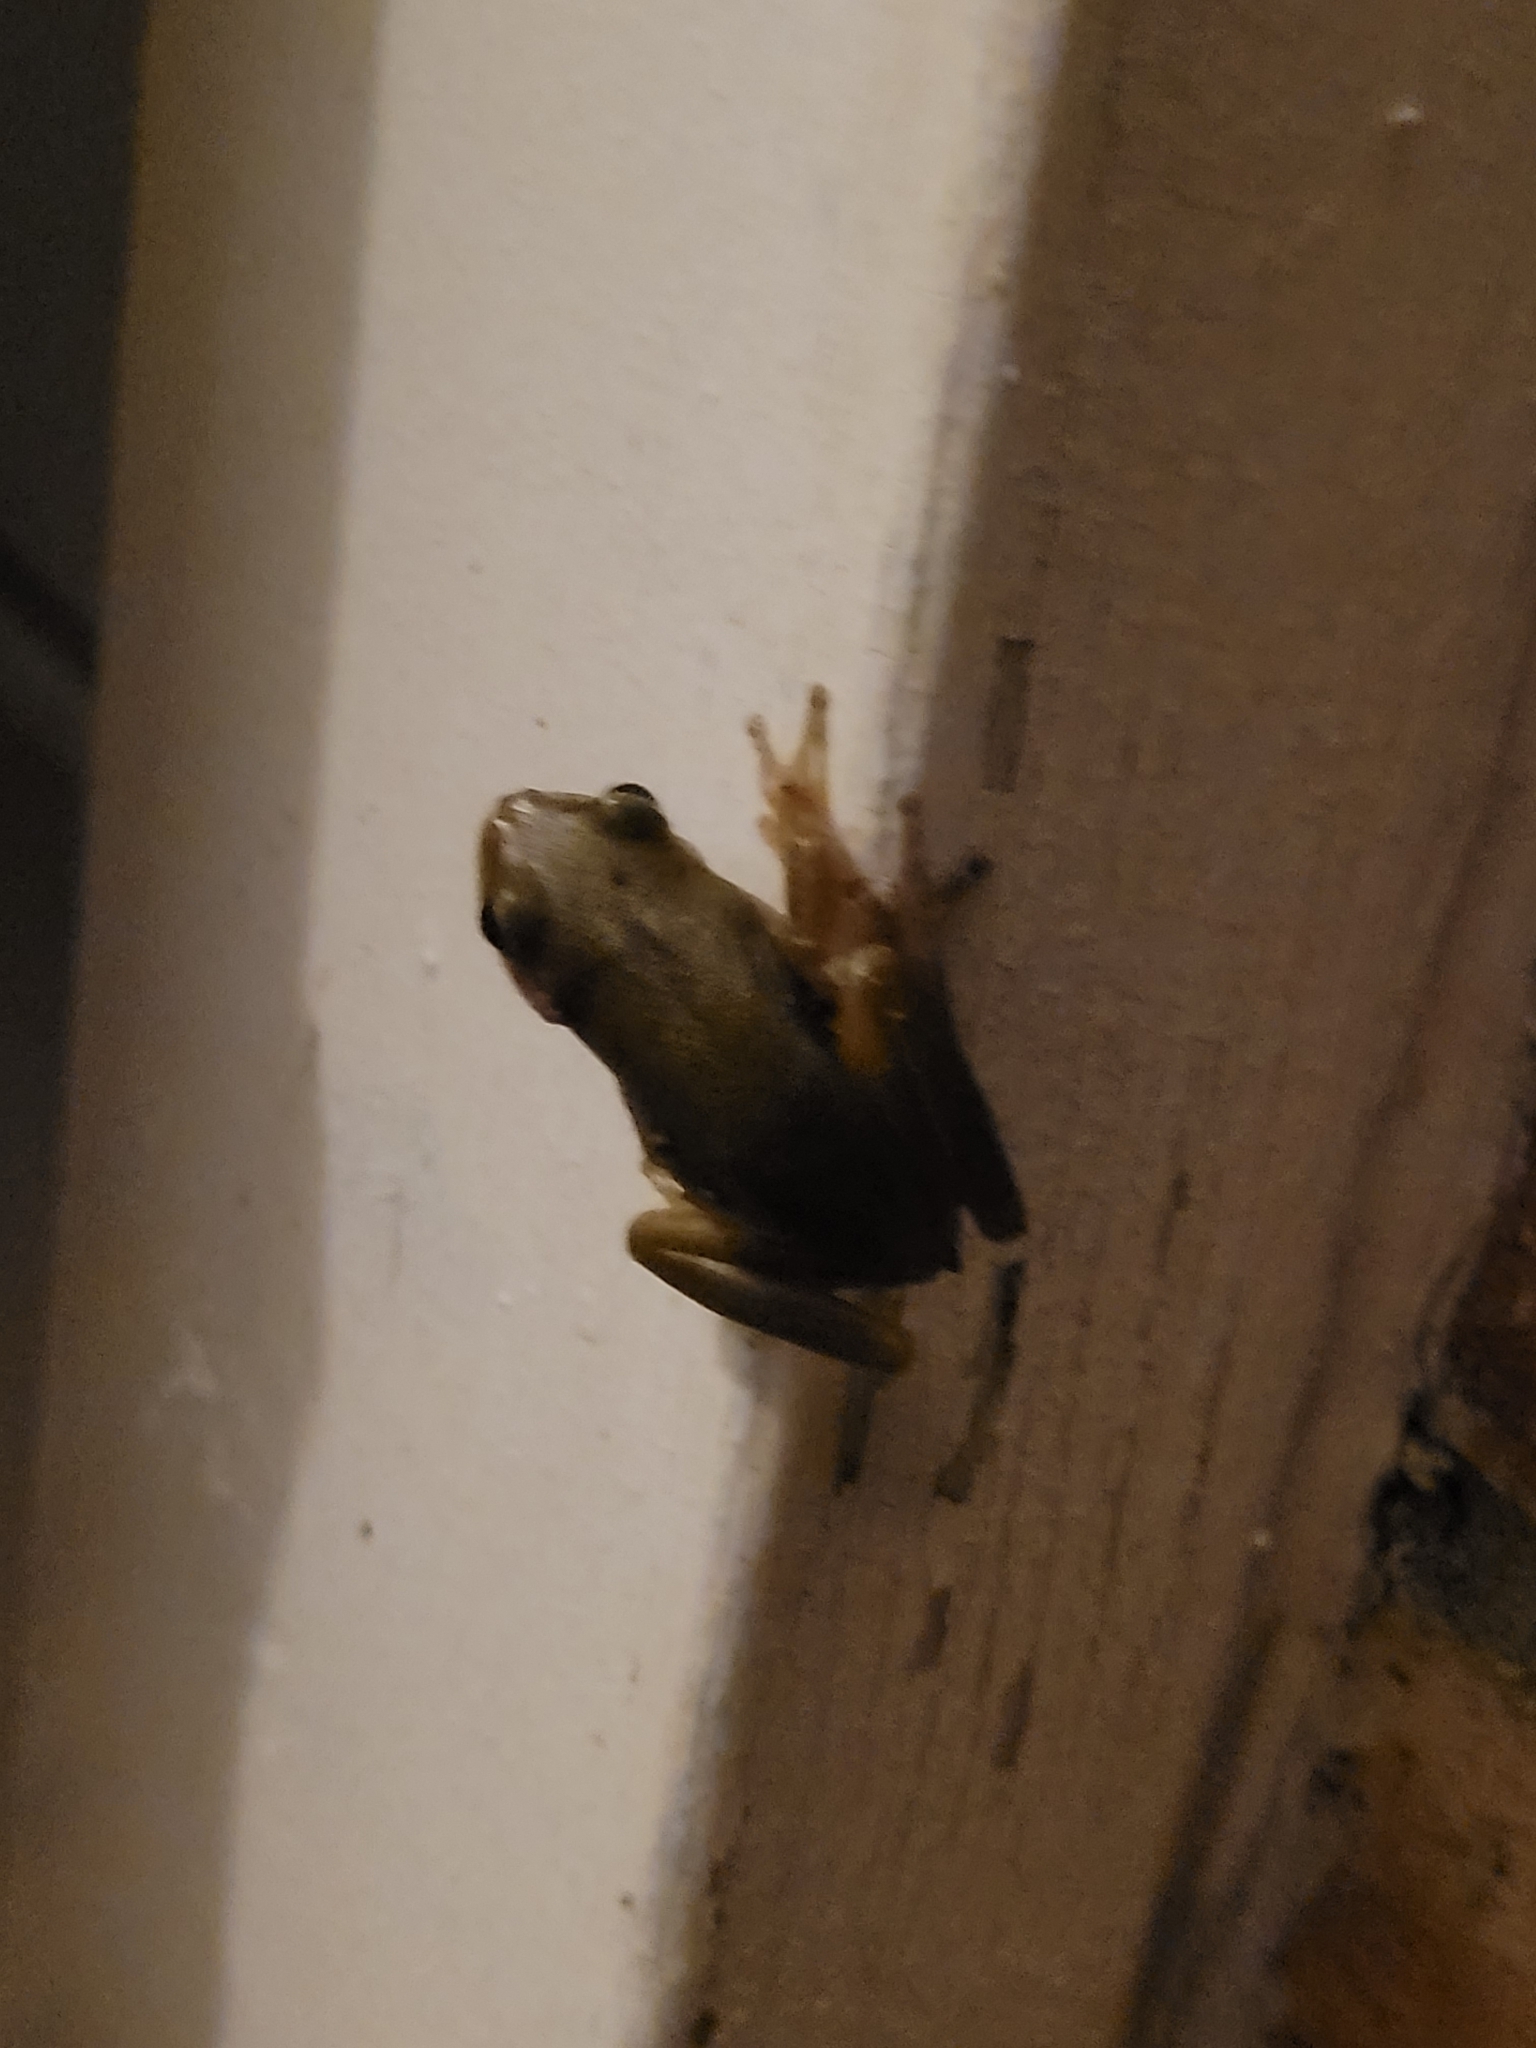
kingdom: Animalia
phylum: Chordata
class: Amphibia
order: Anura
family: Hylidae
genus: Dryophytes
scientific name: Dryophytes squirellus
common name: Squirrel treefrog
